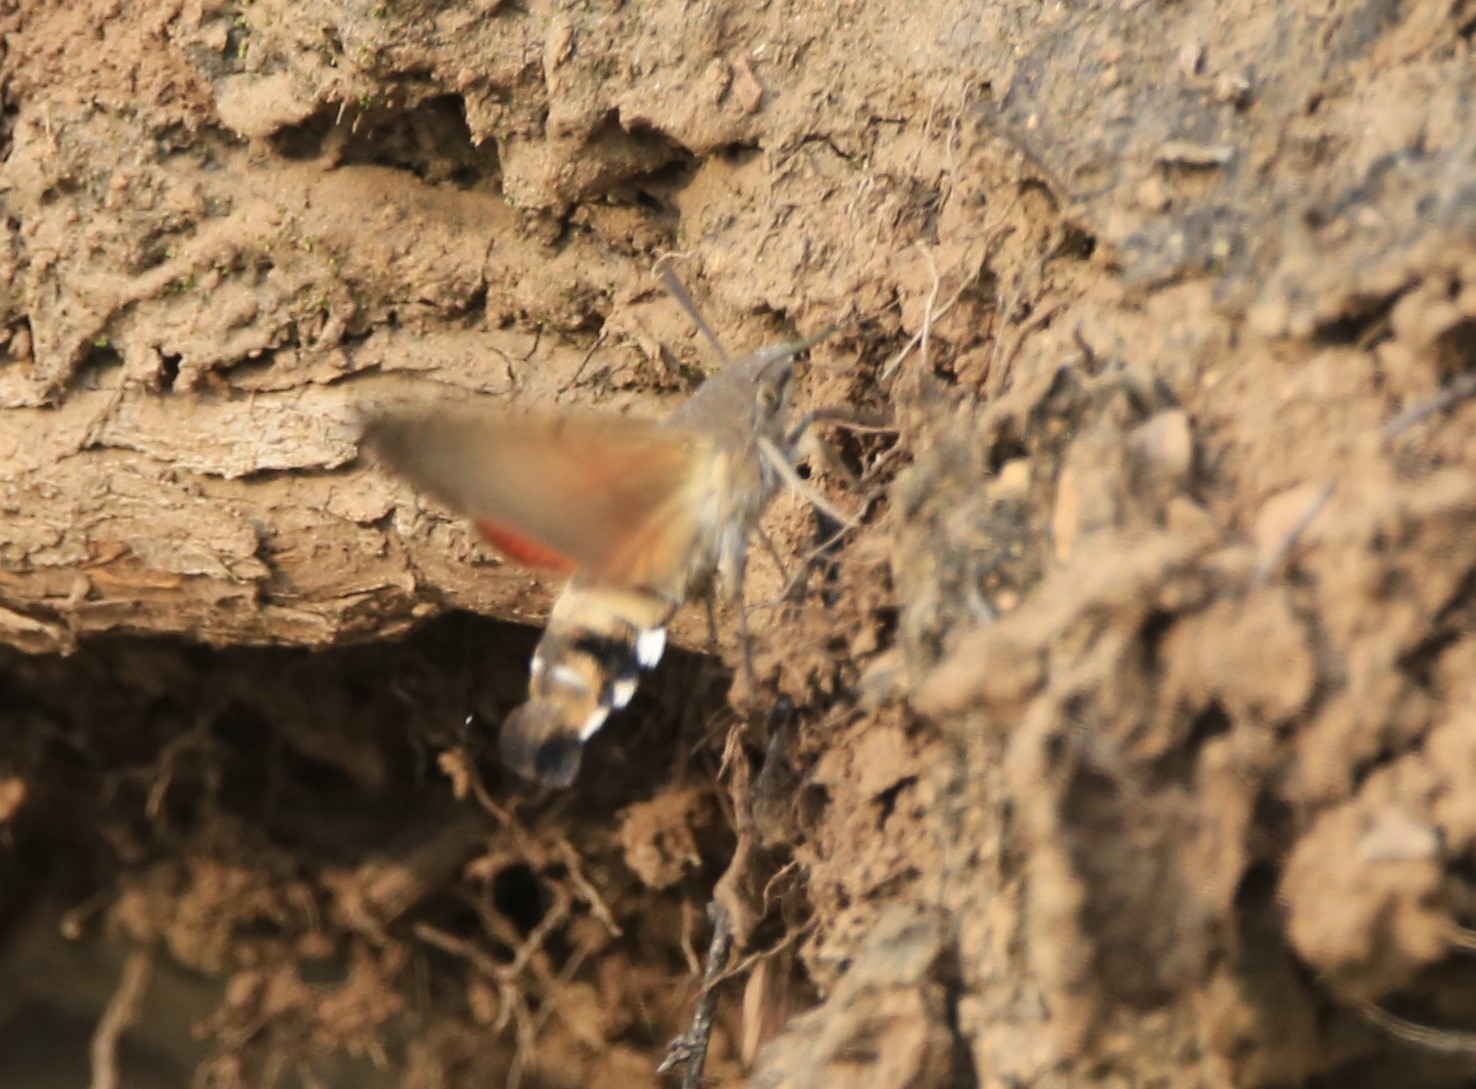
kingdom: Animalia
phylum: Arthropoda
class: Insecta
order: Lepidoptera
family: Sphingidae
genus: Macroglossum
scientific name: Macroglossum stellatarum
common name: Humming-bird hawk-moth
